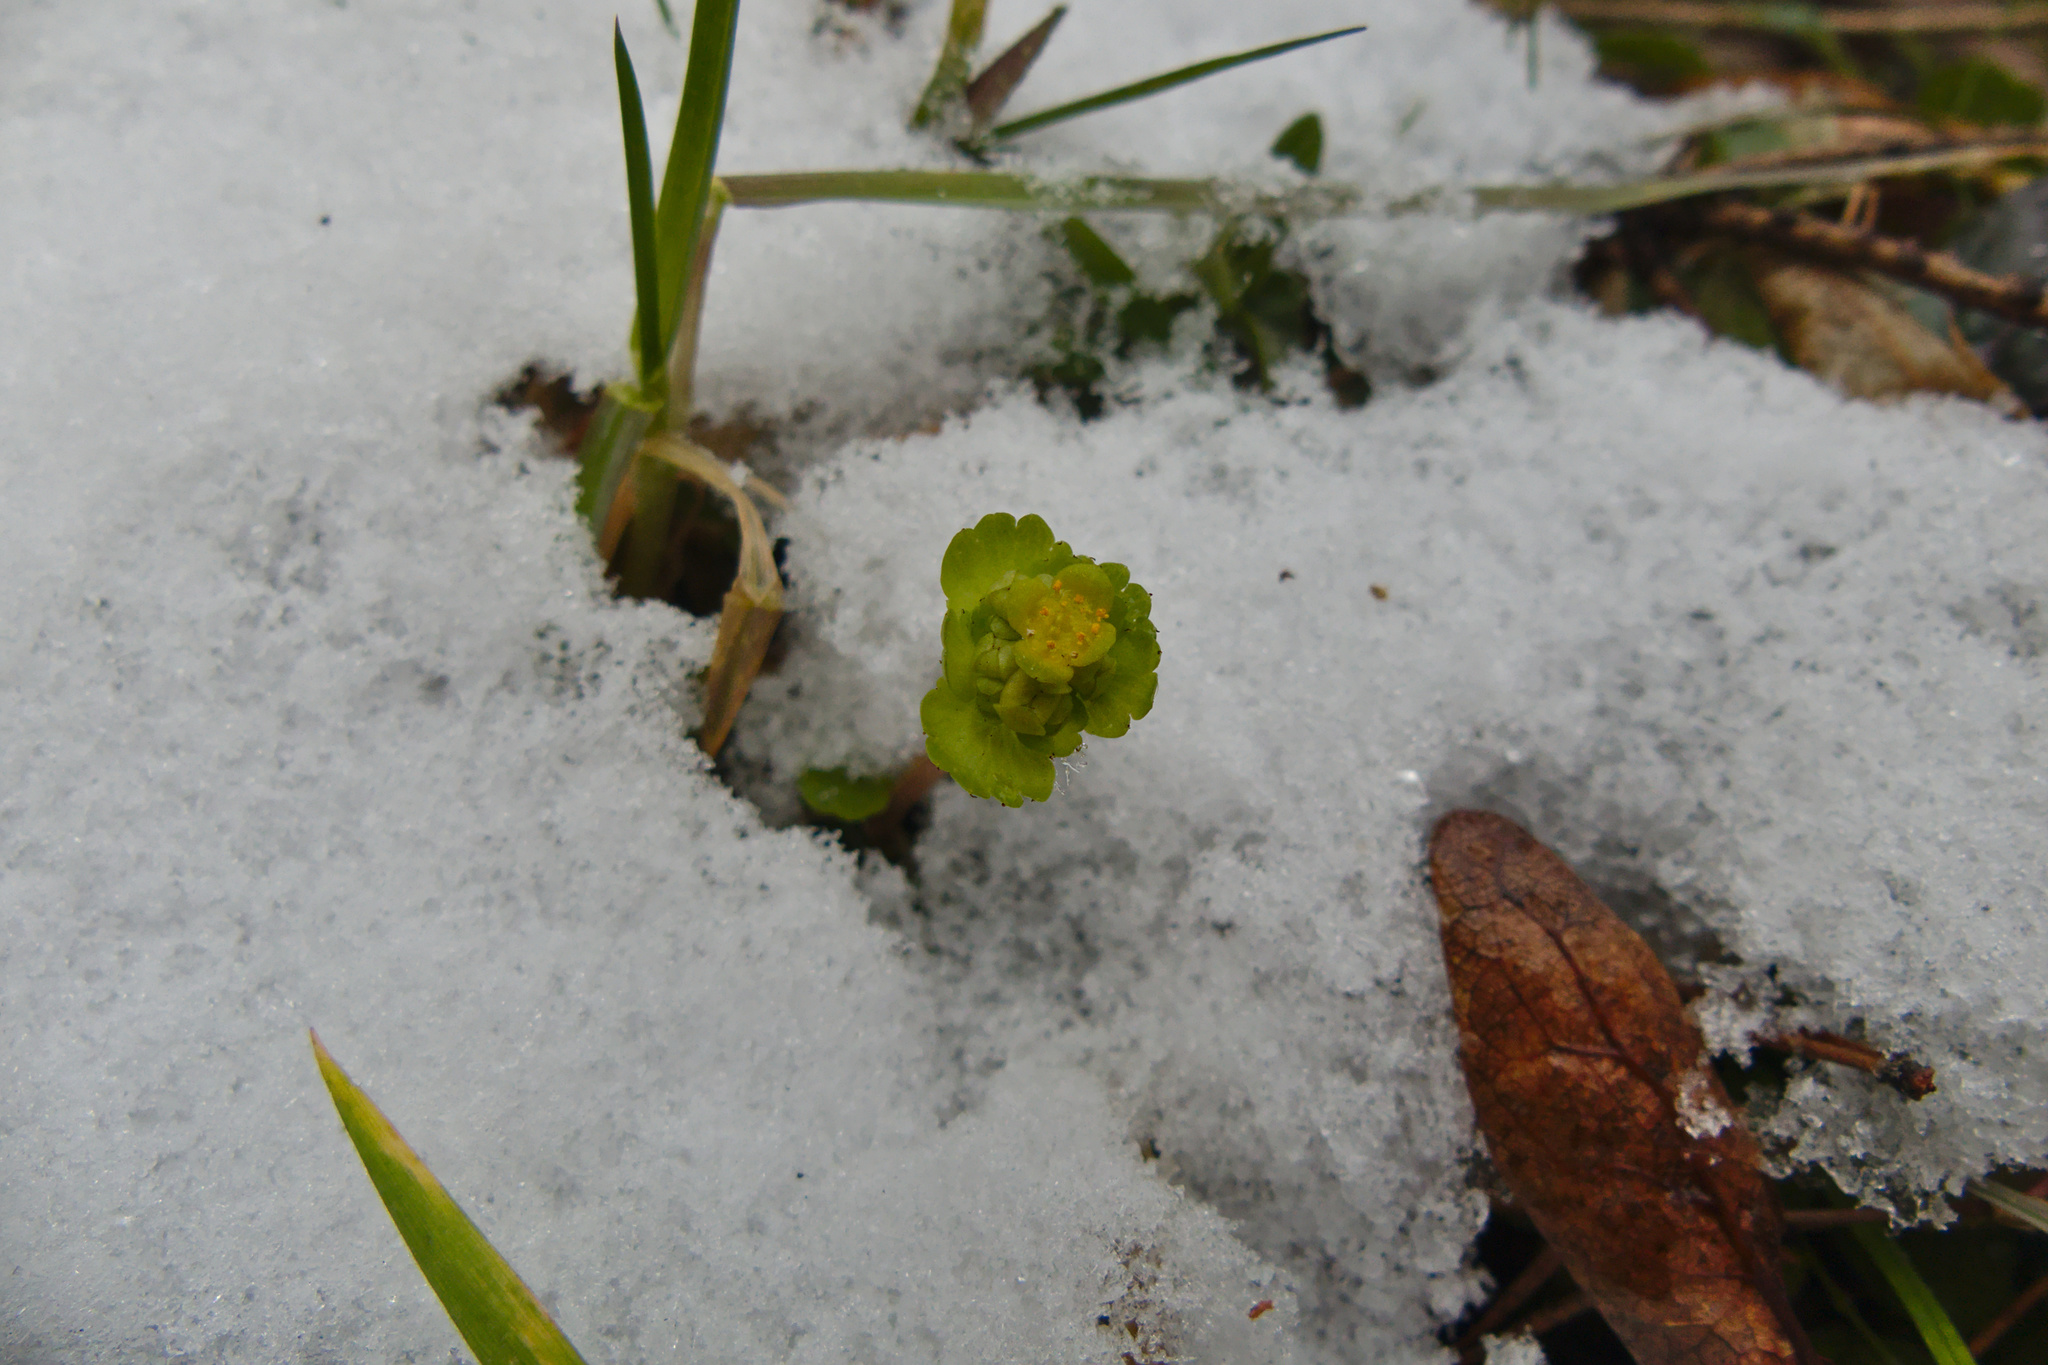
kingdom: Plantae
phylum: Tracheophyta
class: Magnoliopsida
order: Saxifragales
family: Saxifragaceae
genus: Chrysosplenium
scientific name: Chrysosplenium alternifolium
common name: Alternate-leaved golden-saxifrage
